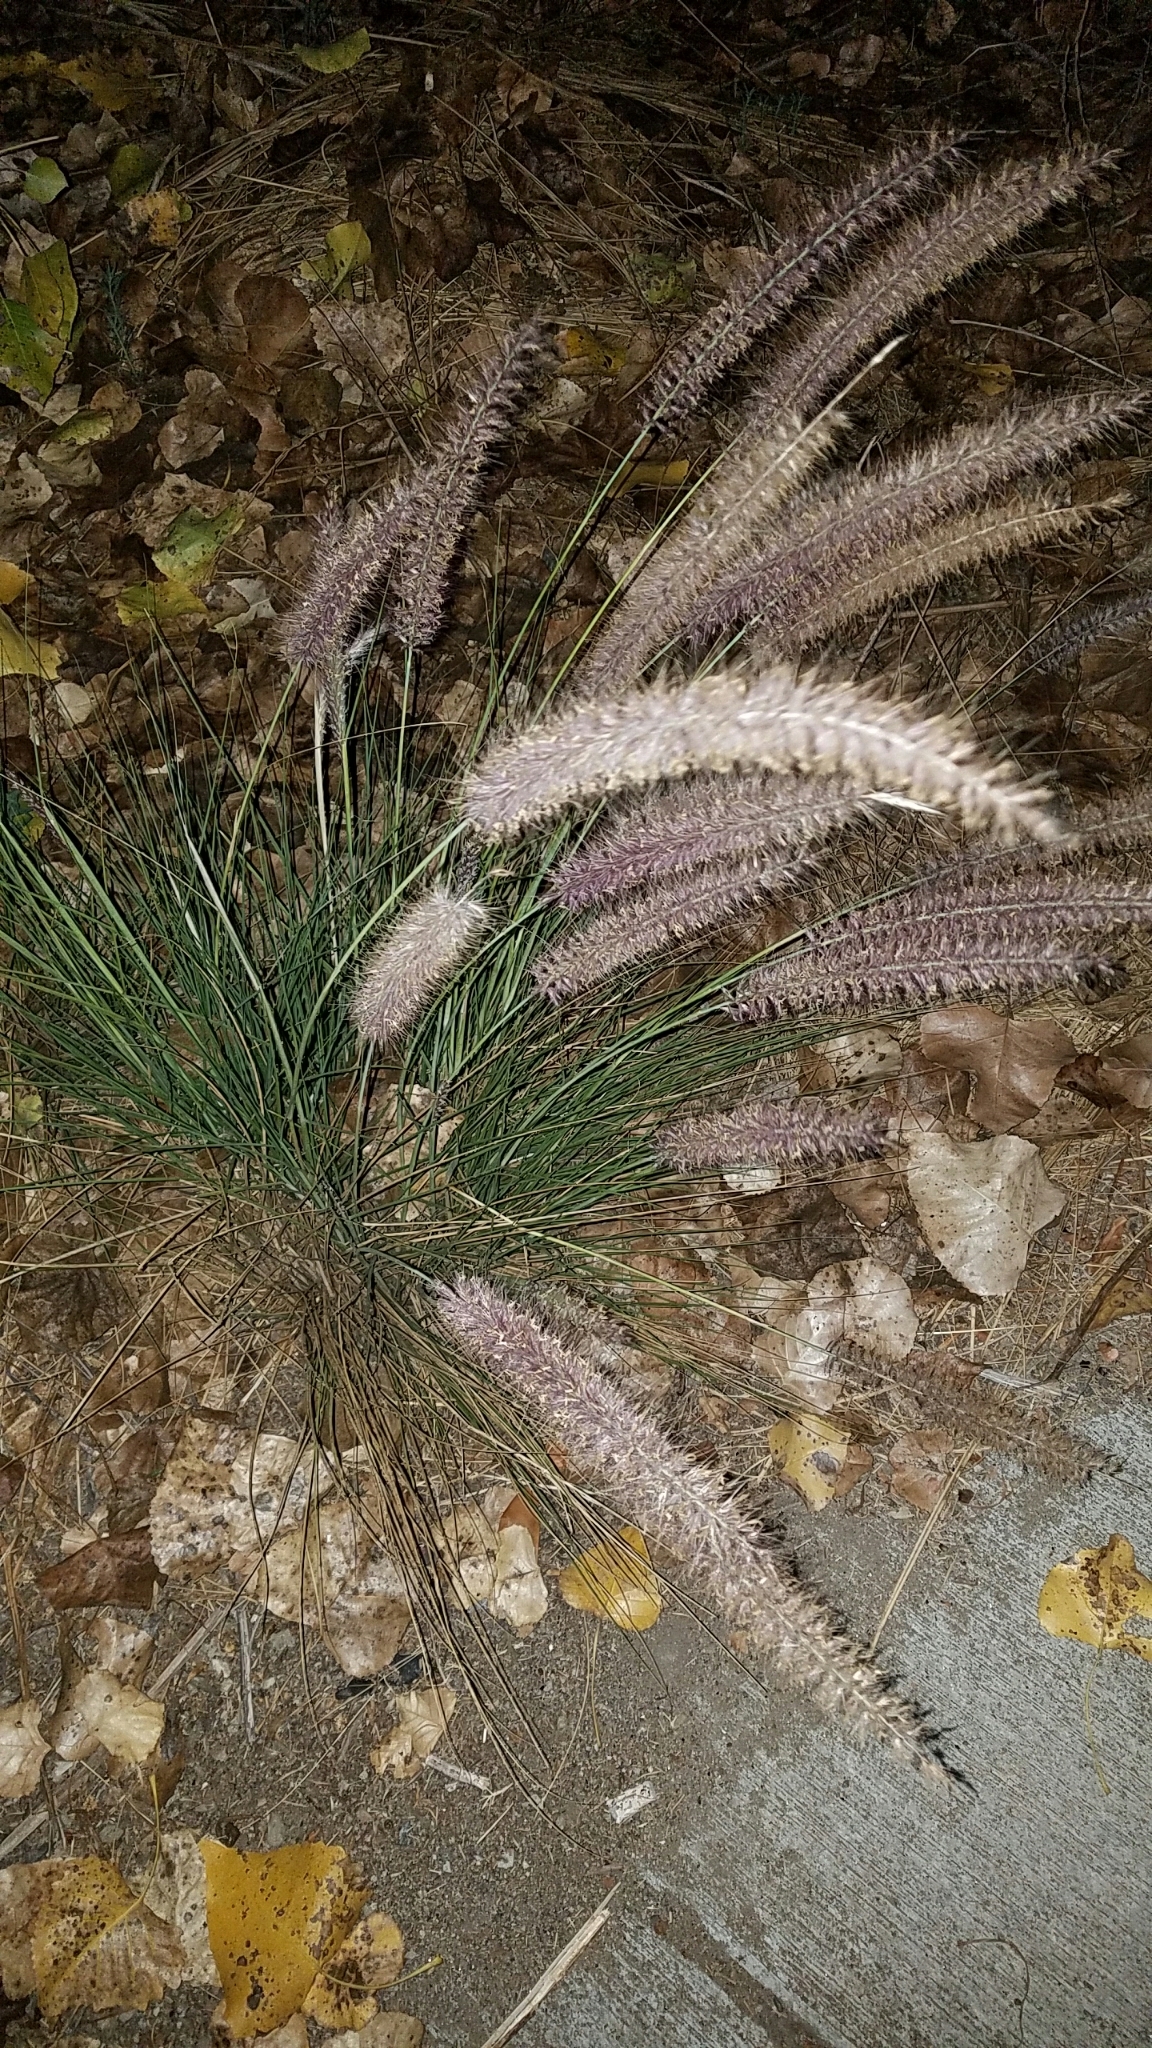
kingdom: Plantae
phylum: Tracheophyta
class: Liliopsida
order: Poales
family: Poaceae
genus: Cenchrus
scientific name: Cenchrus setaceus
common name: Crimson fountaingrass
